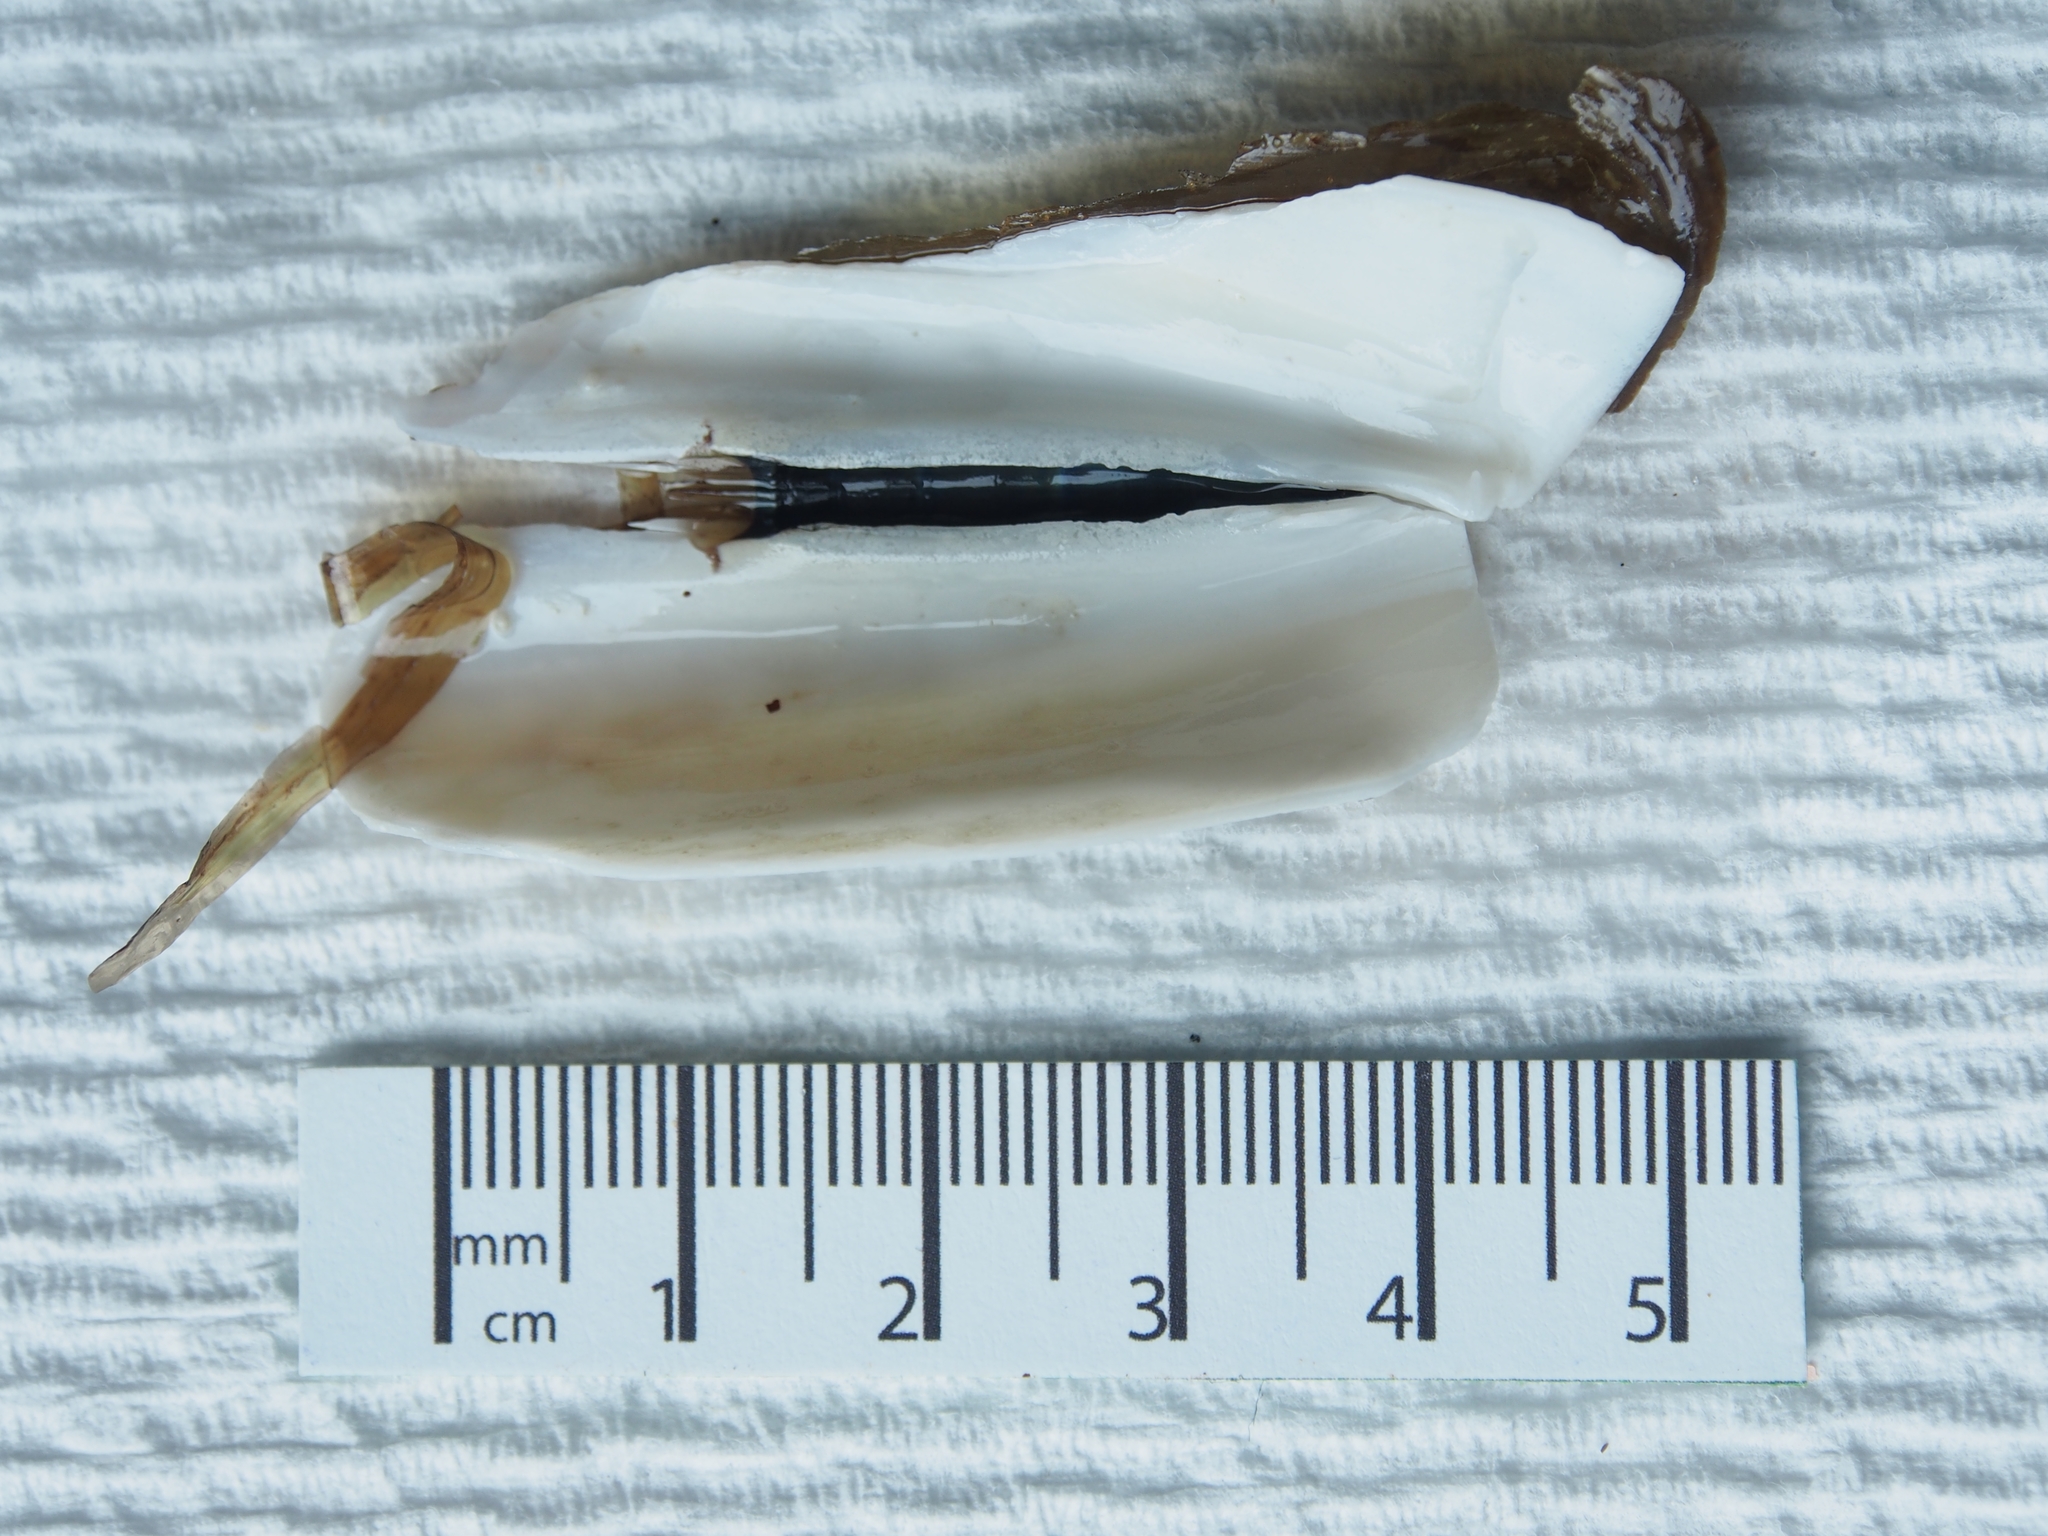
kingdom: Animalia
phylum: Mollusca
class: Bivalvia
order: Adapedonta
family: Pharidae
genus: Ensis
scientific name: Ensis leei
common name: American jack knife clam
